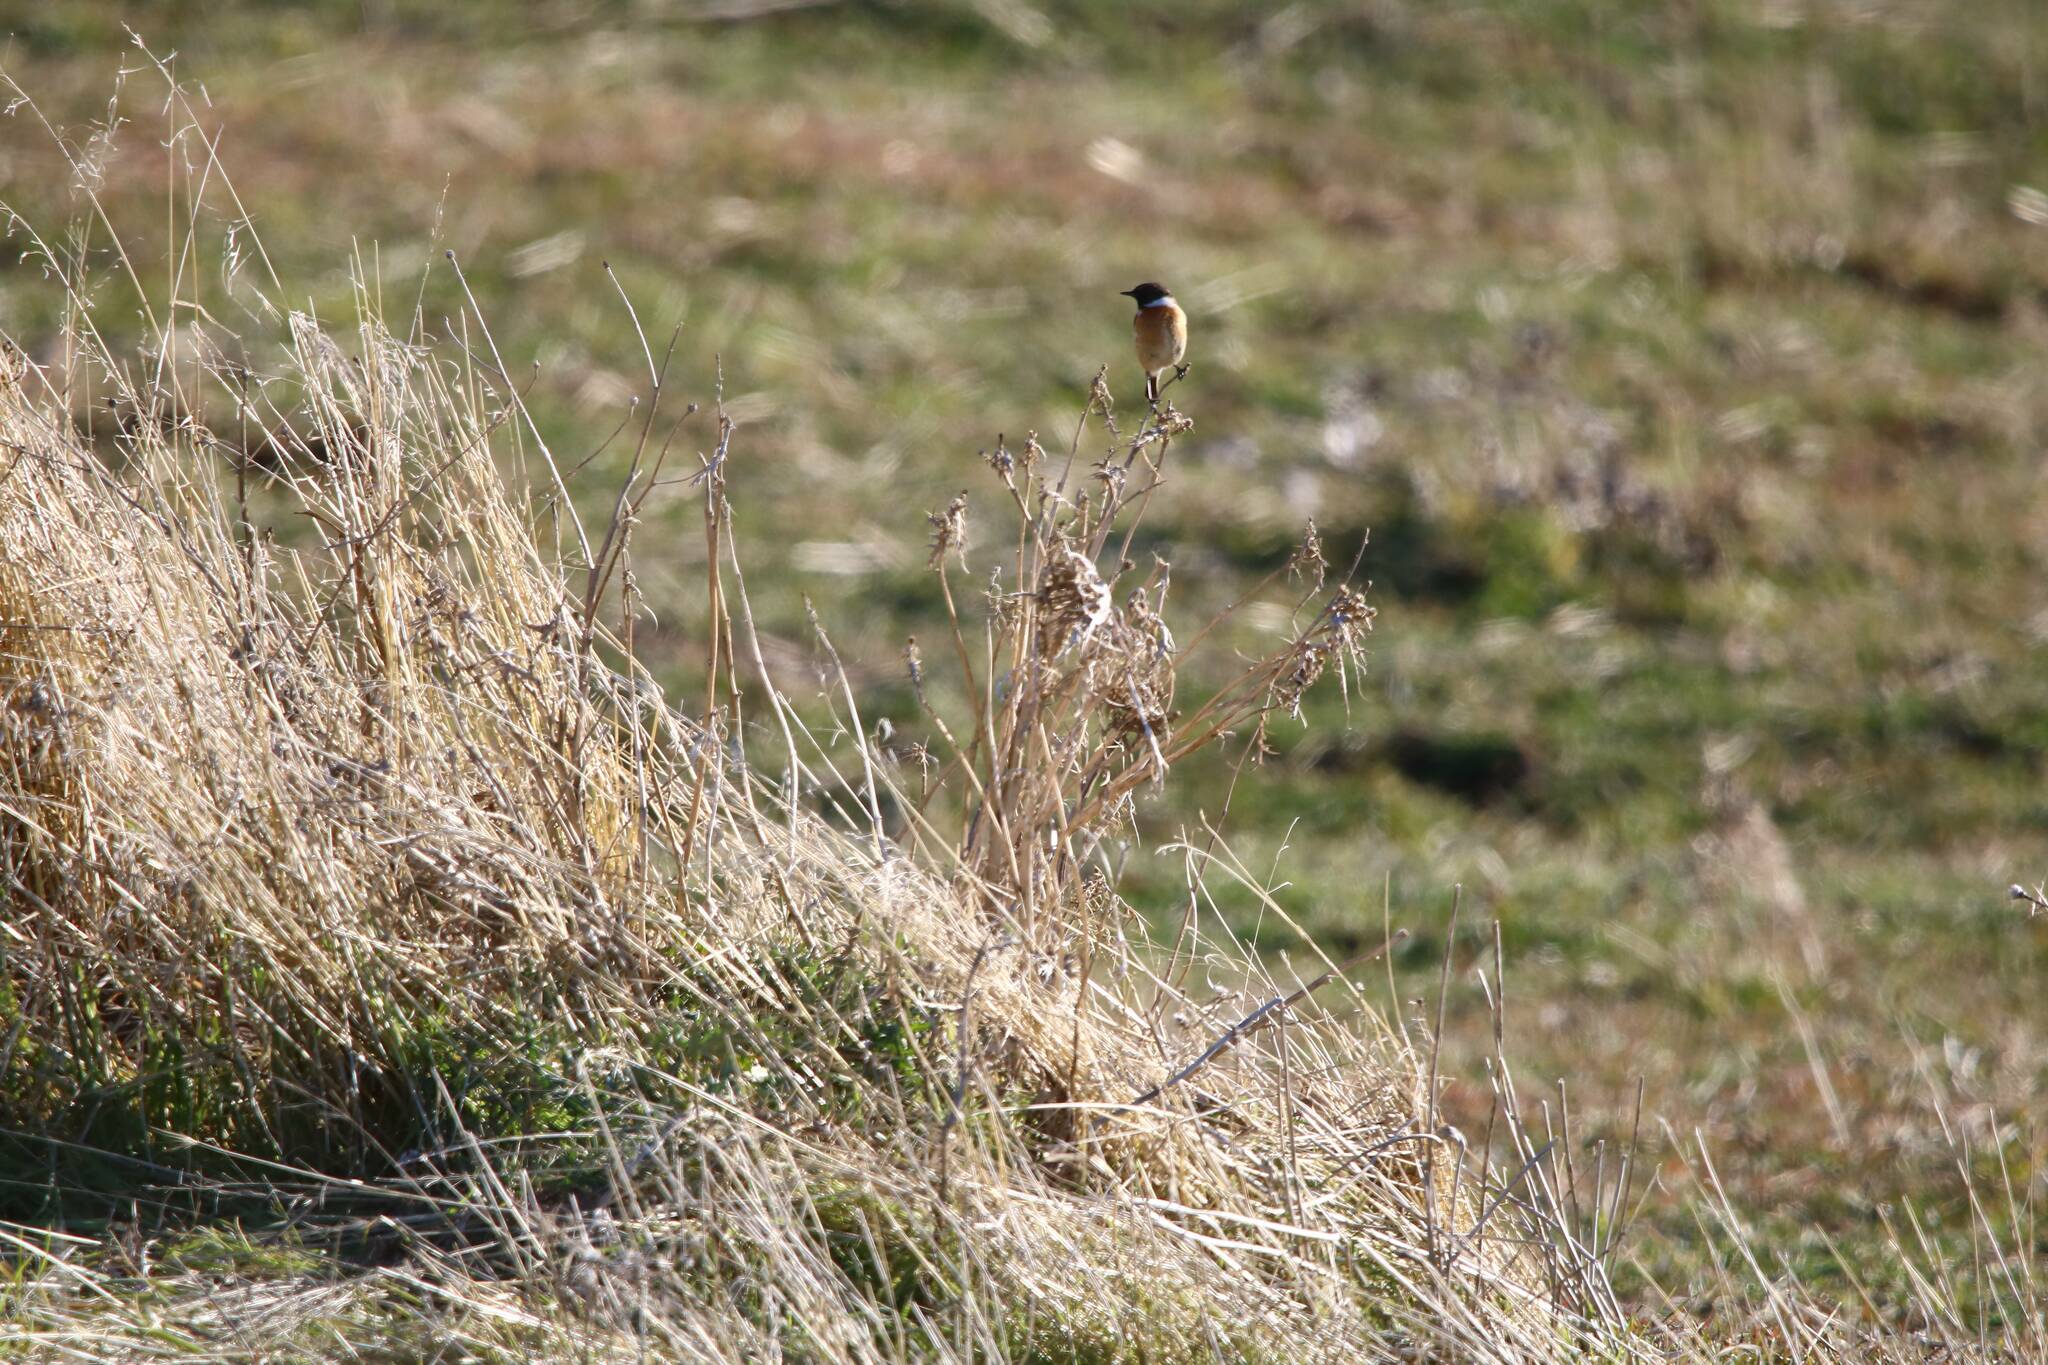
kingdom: Animalia
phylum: Chordata
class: Aves
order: Passeriformes
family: Muscicapidae
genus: Saxicola
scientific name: Saxicola rubicola
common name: European stonechat
